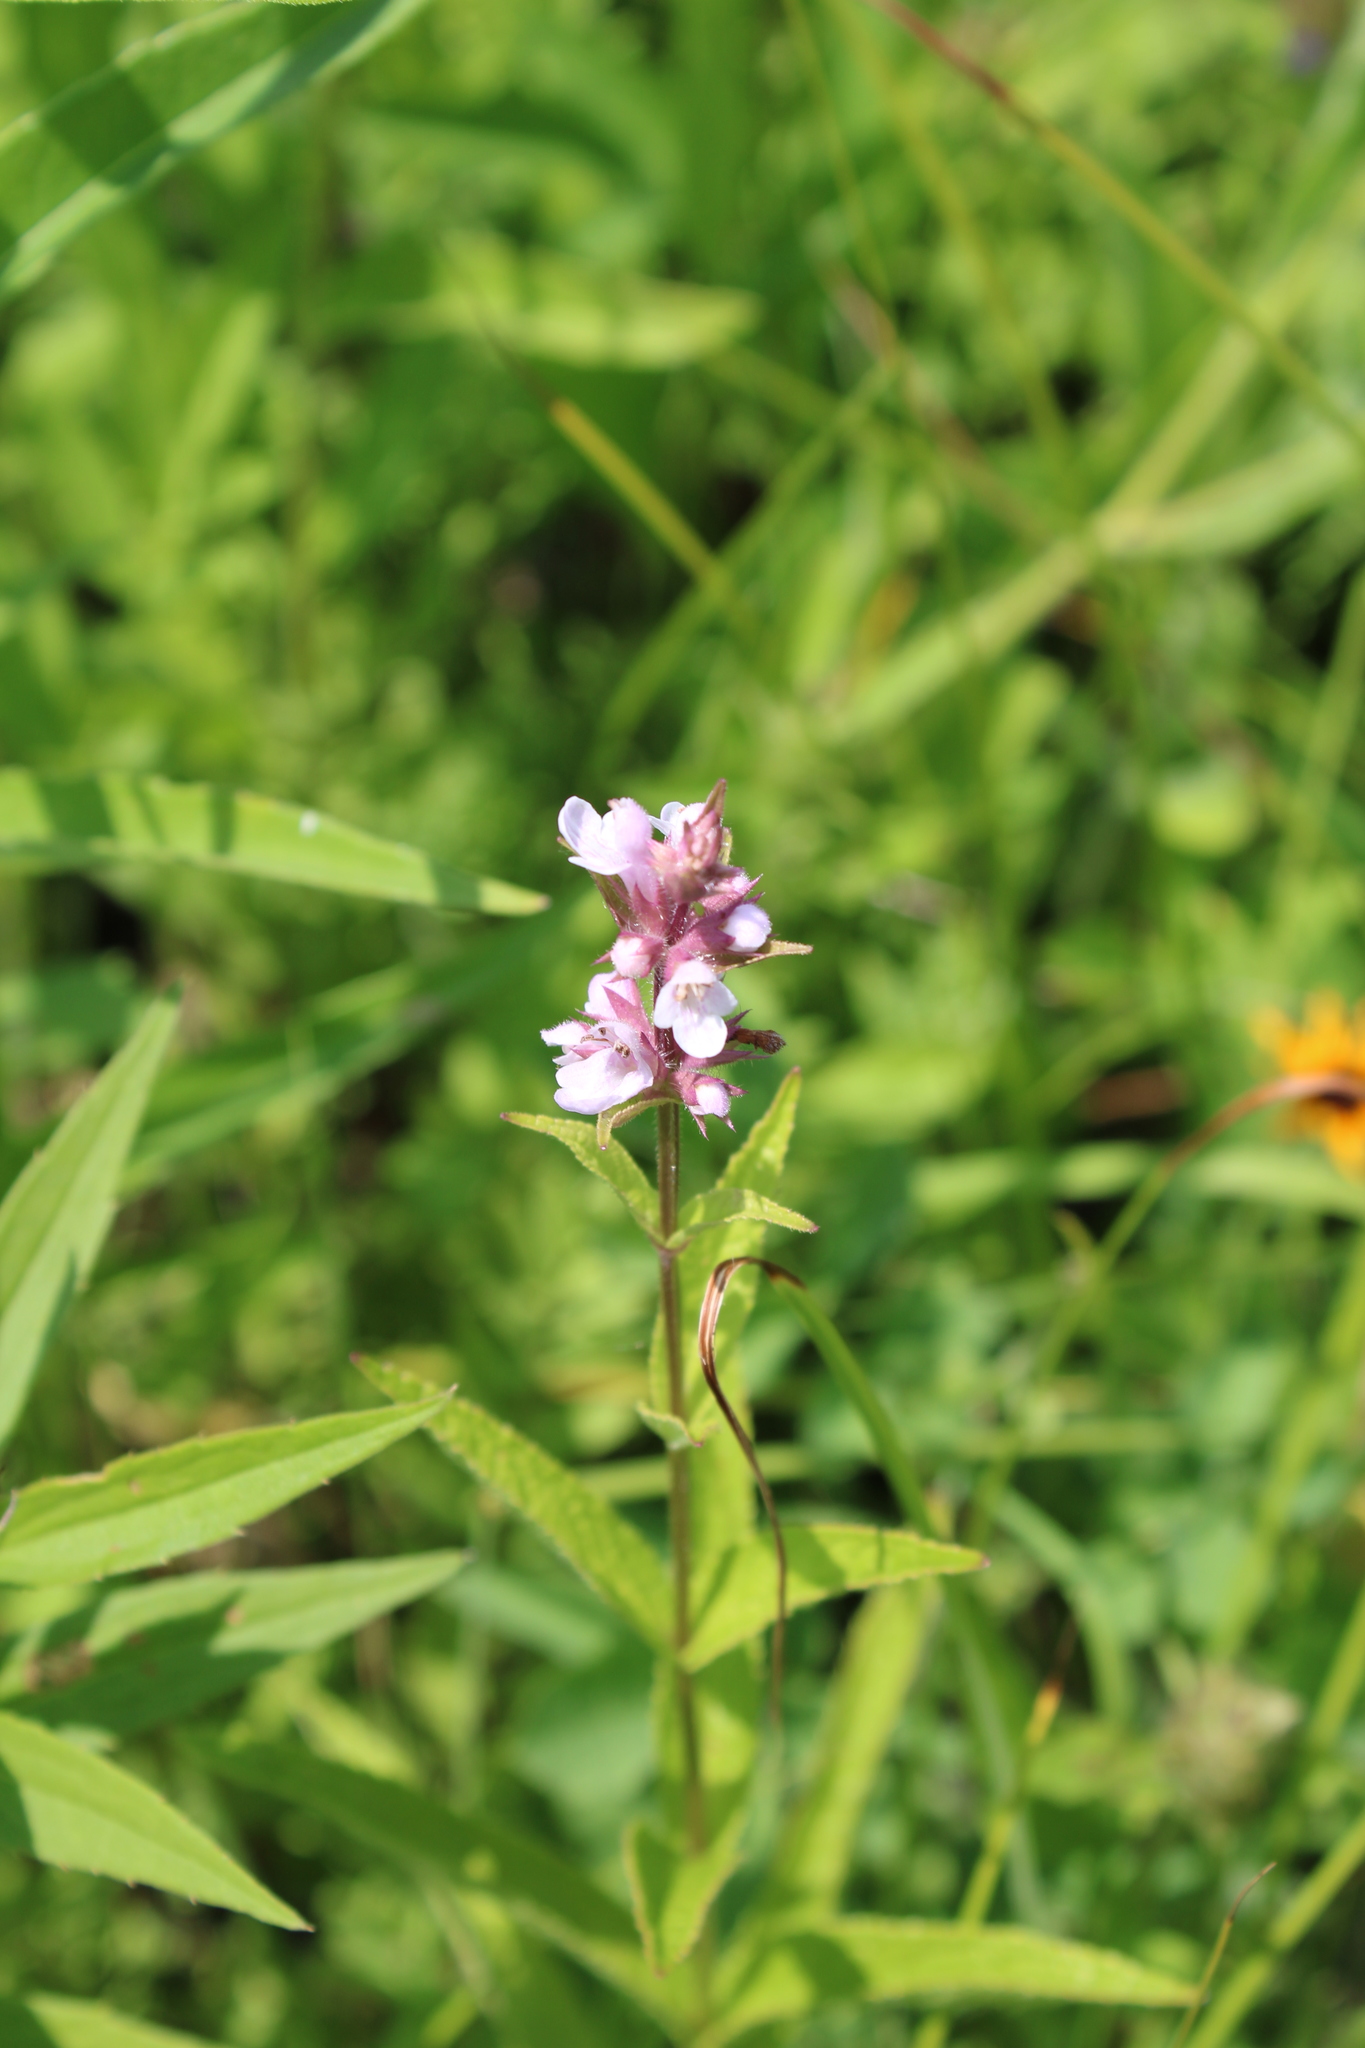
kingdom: Plantae
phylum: Tracheophyta
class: Magnoliopsida
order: Lamiales
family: Lamiaceae
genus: Stachys
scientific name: Stachys hispida
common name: Hispid hedge-nettle
